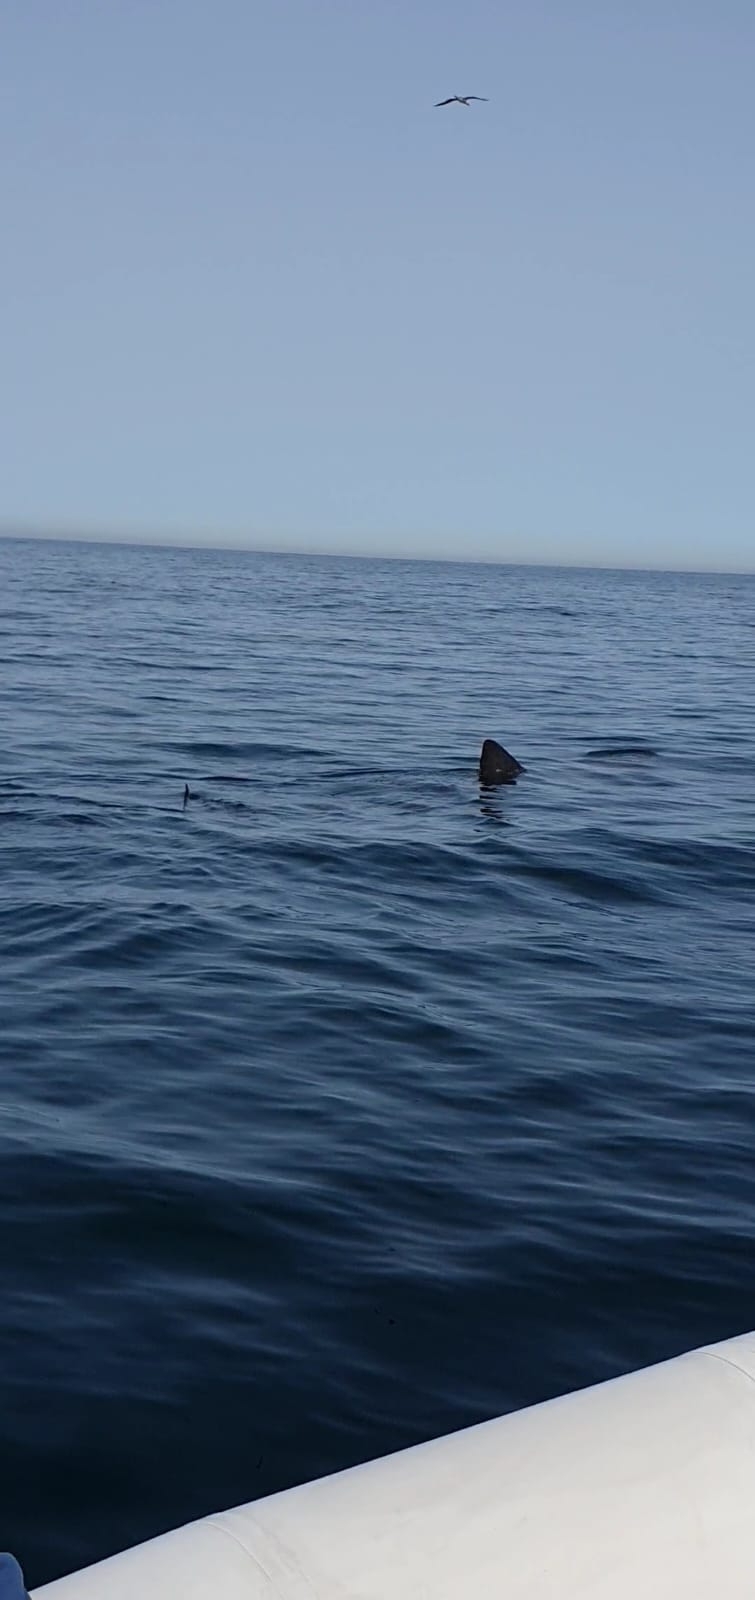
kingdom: Animalia
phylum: Chordata
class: Elasmobranchii
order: Lamniformes
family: Cetorhinidae
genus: Cetorhinus
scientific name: Cetorhinus maximus
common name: Basking shark
